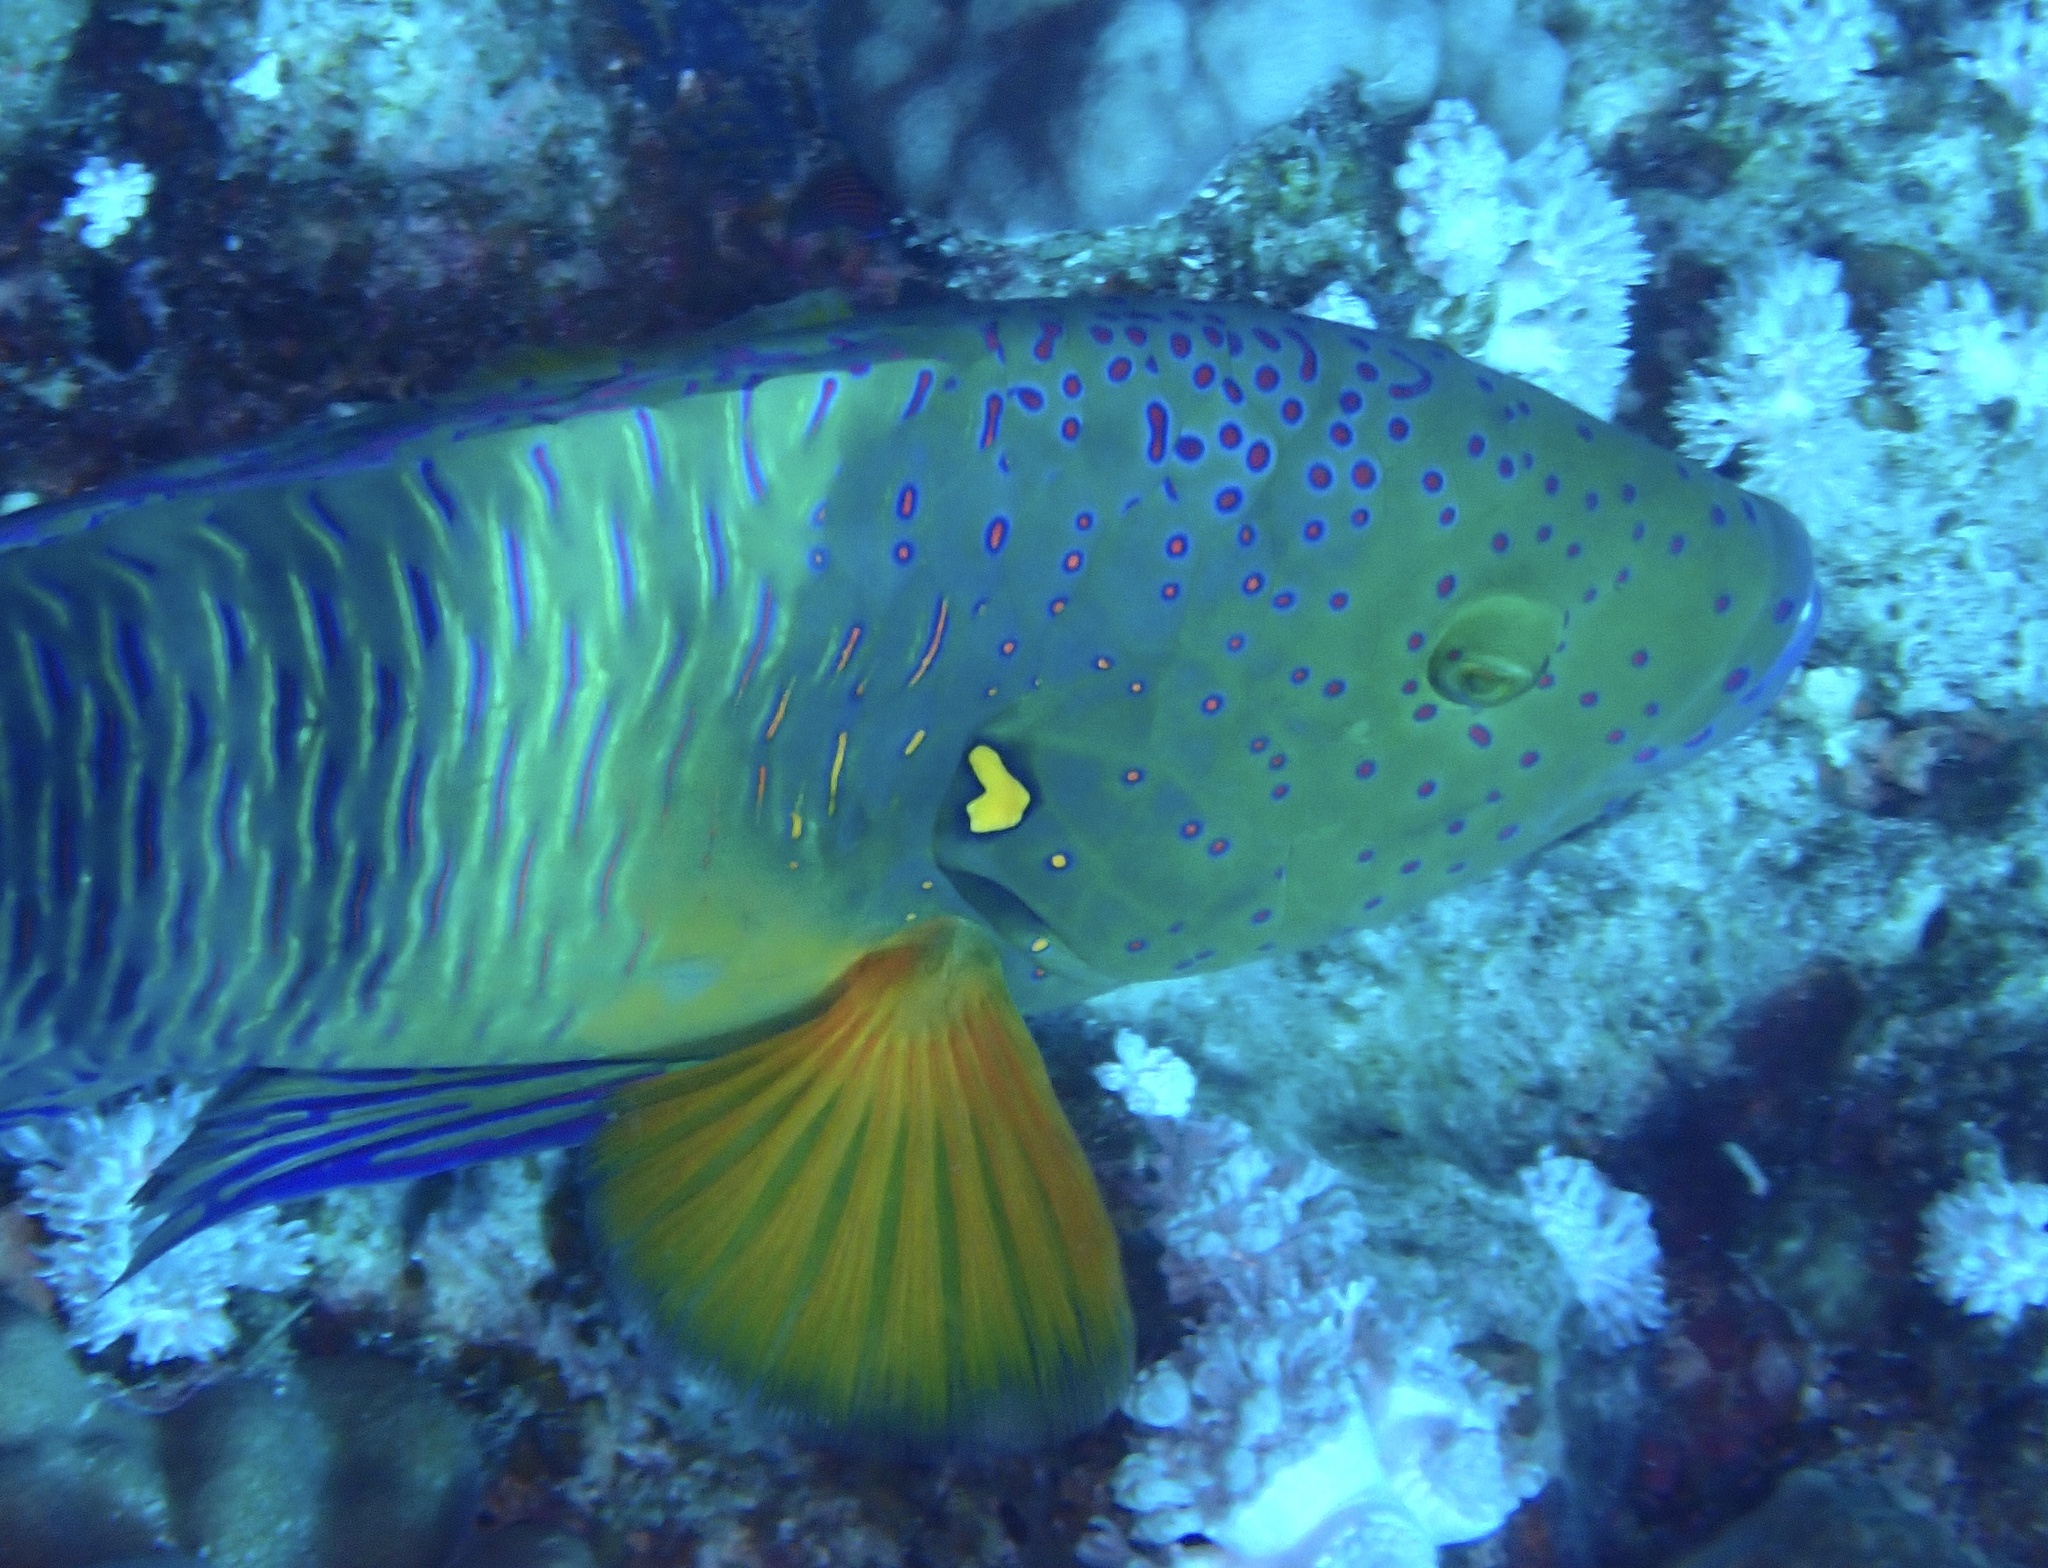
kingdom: Animalia
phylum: Chordata
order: Perciformes
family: Labridae
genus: Cheilinus
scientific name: Cheilinus lunulatus
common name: Broomtail wrasse
